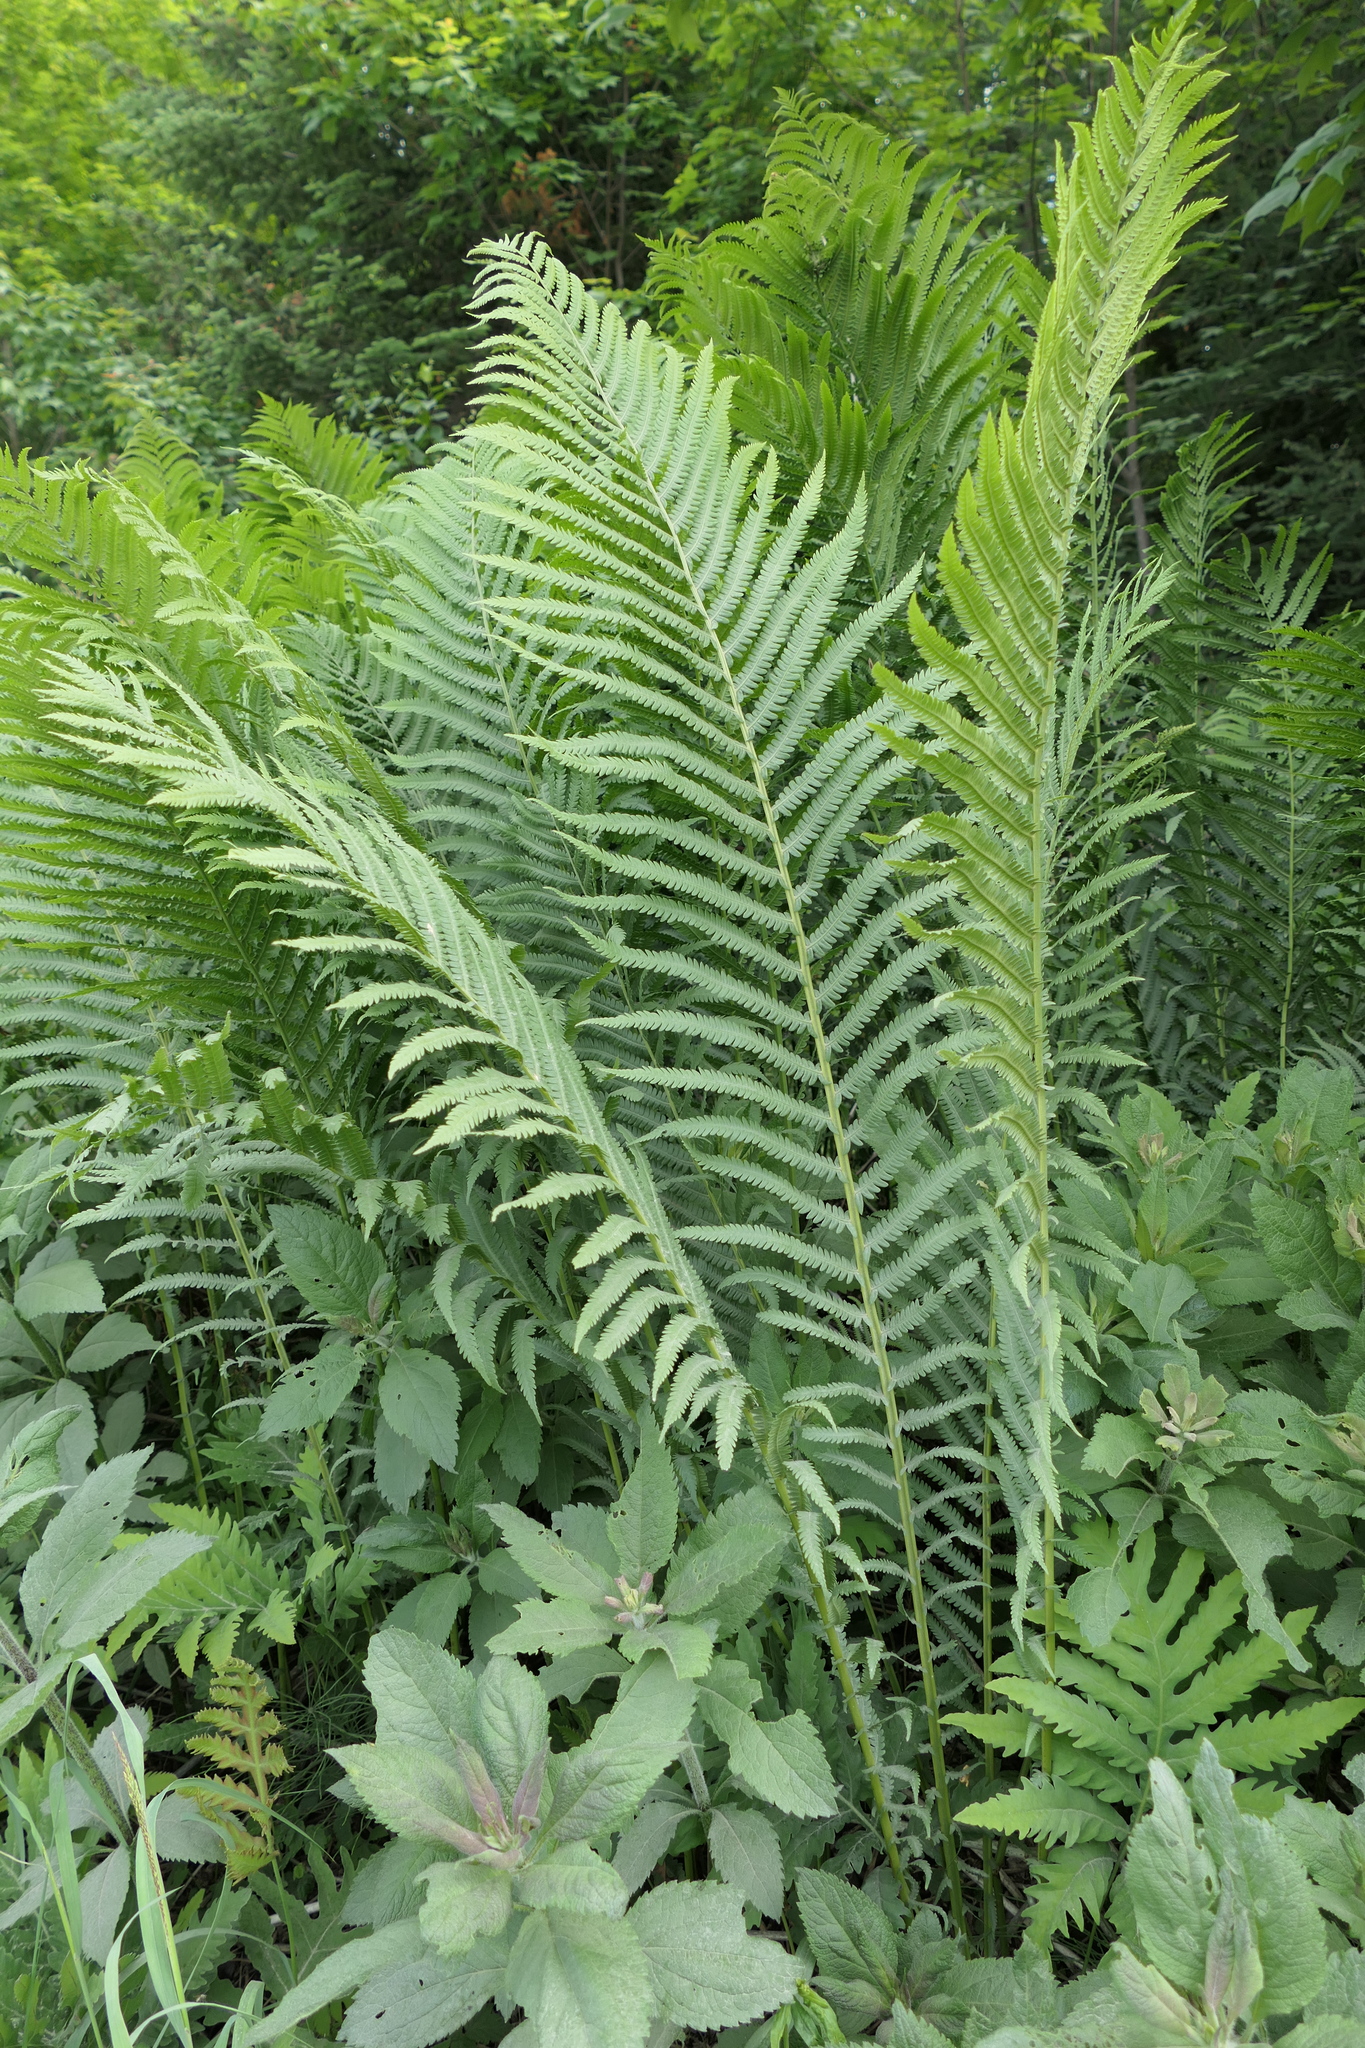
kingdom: Plantae
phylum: Tracheophyta
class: Polypodiopsida
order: Polypodiales
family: Onocleaceae
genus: Matteuccia
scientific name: Matteuccia struthiopteris
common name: Ostrich fern
